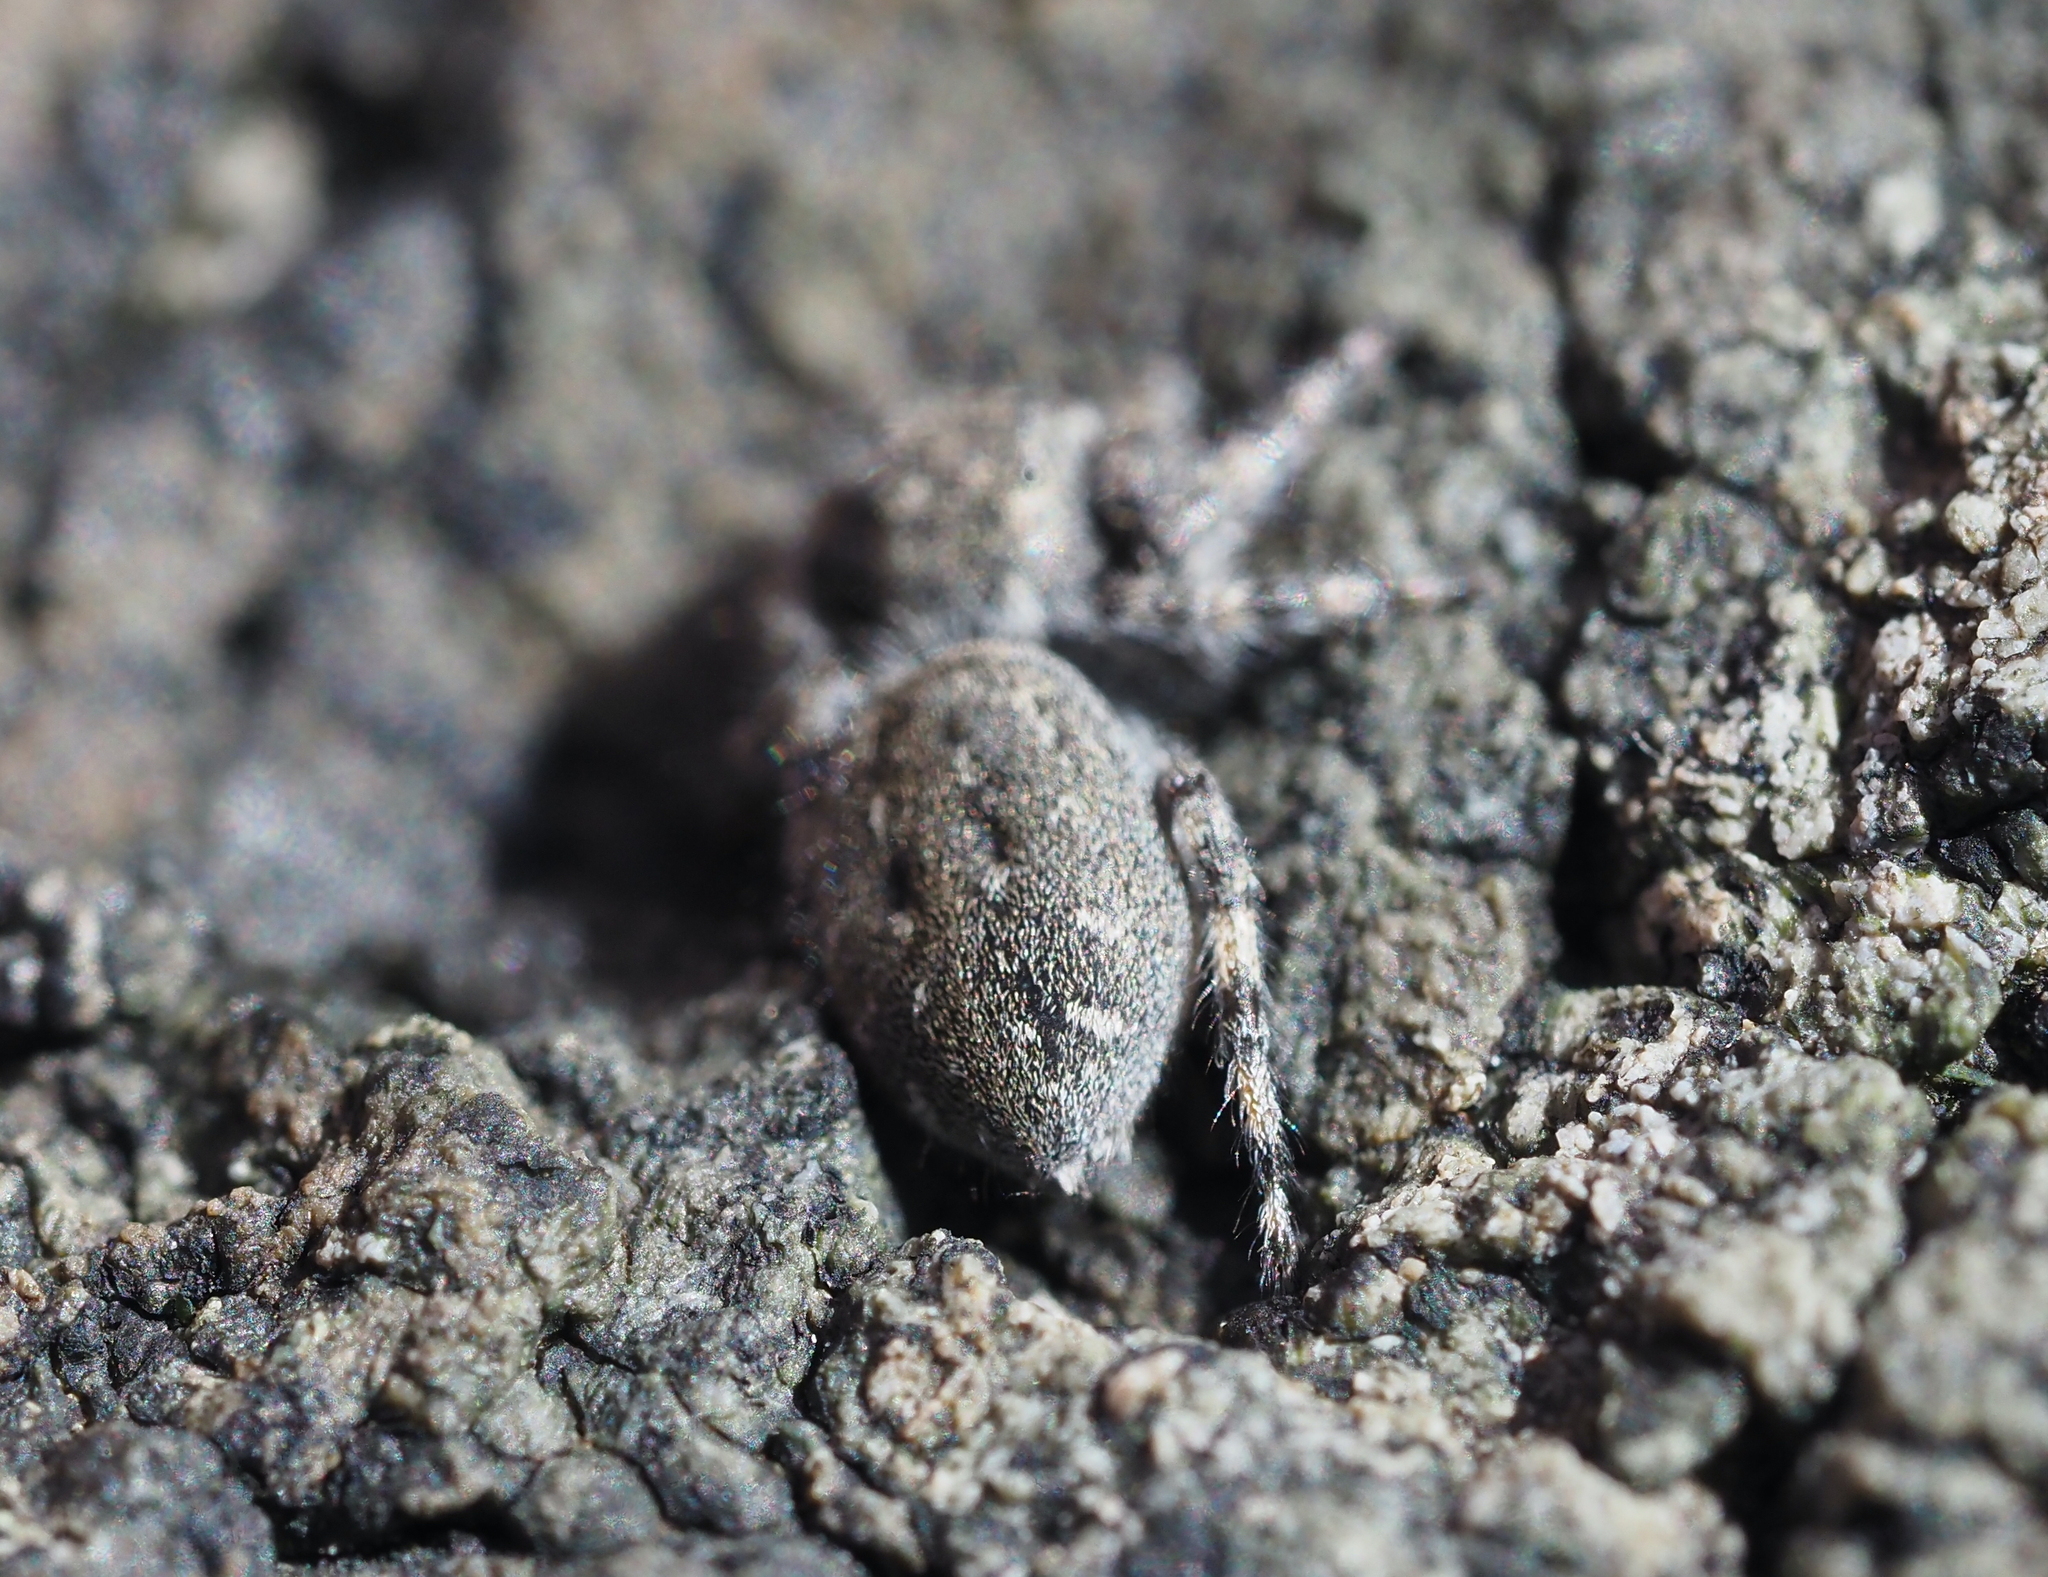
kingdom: Animalia
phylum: Arthropoda
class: Arachnida
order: Araneae
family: Salticidae
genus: Terralonus
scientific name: Terralonus californicus
